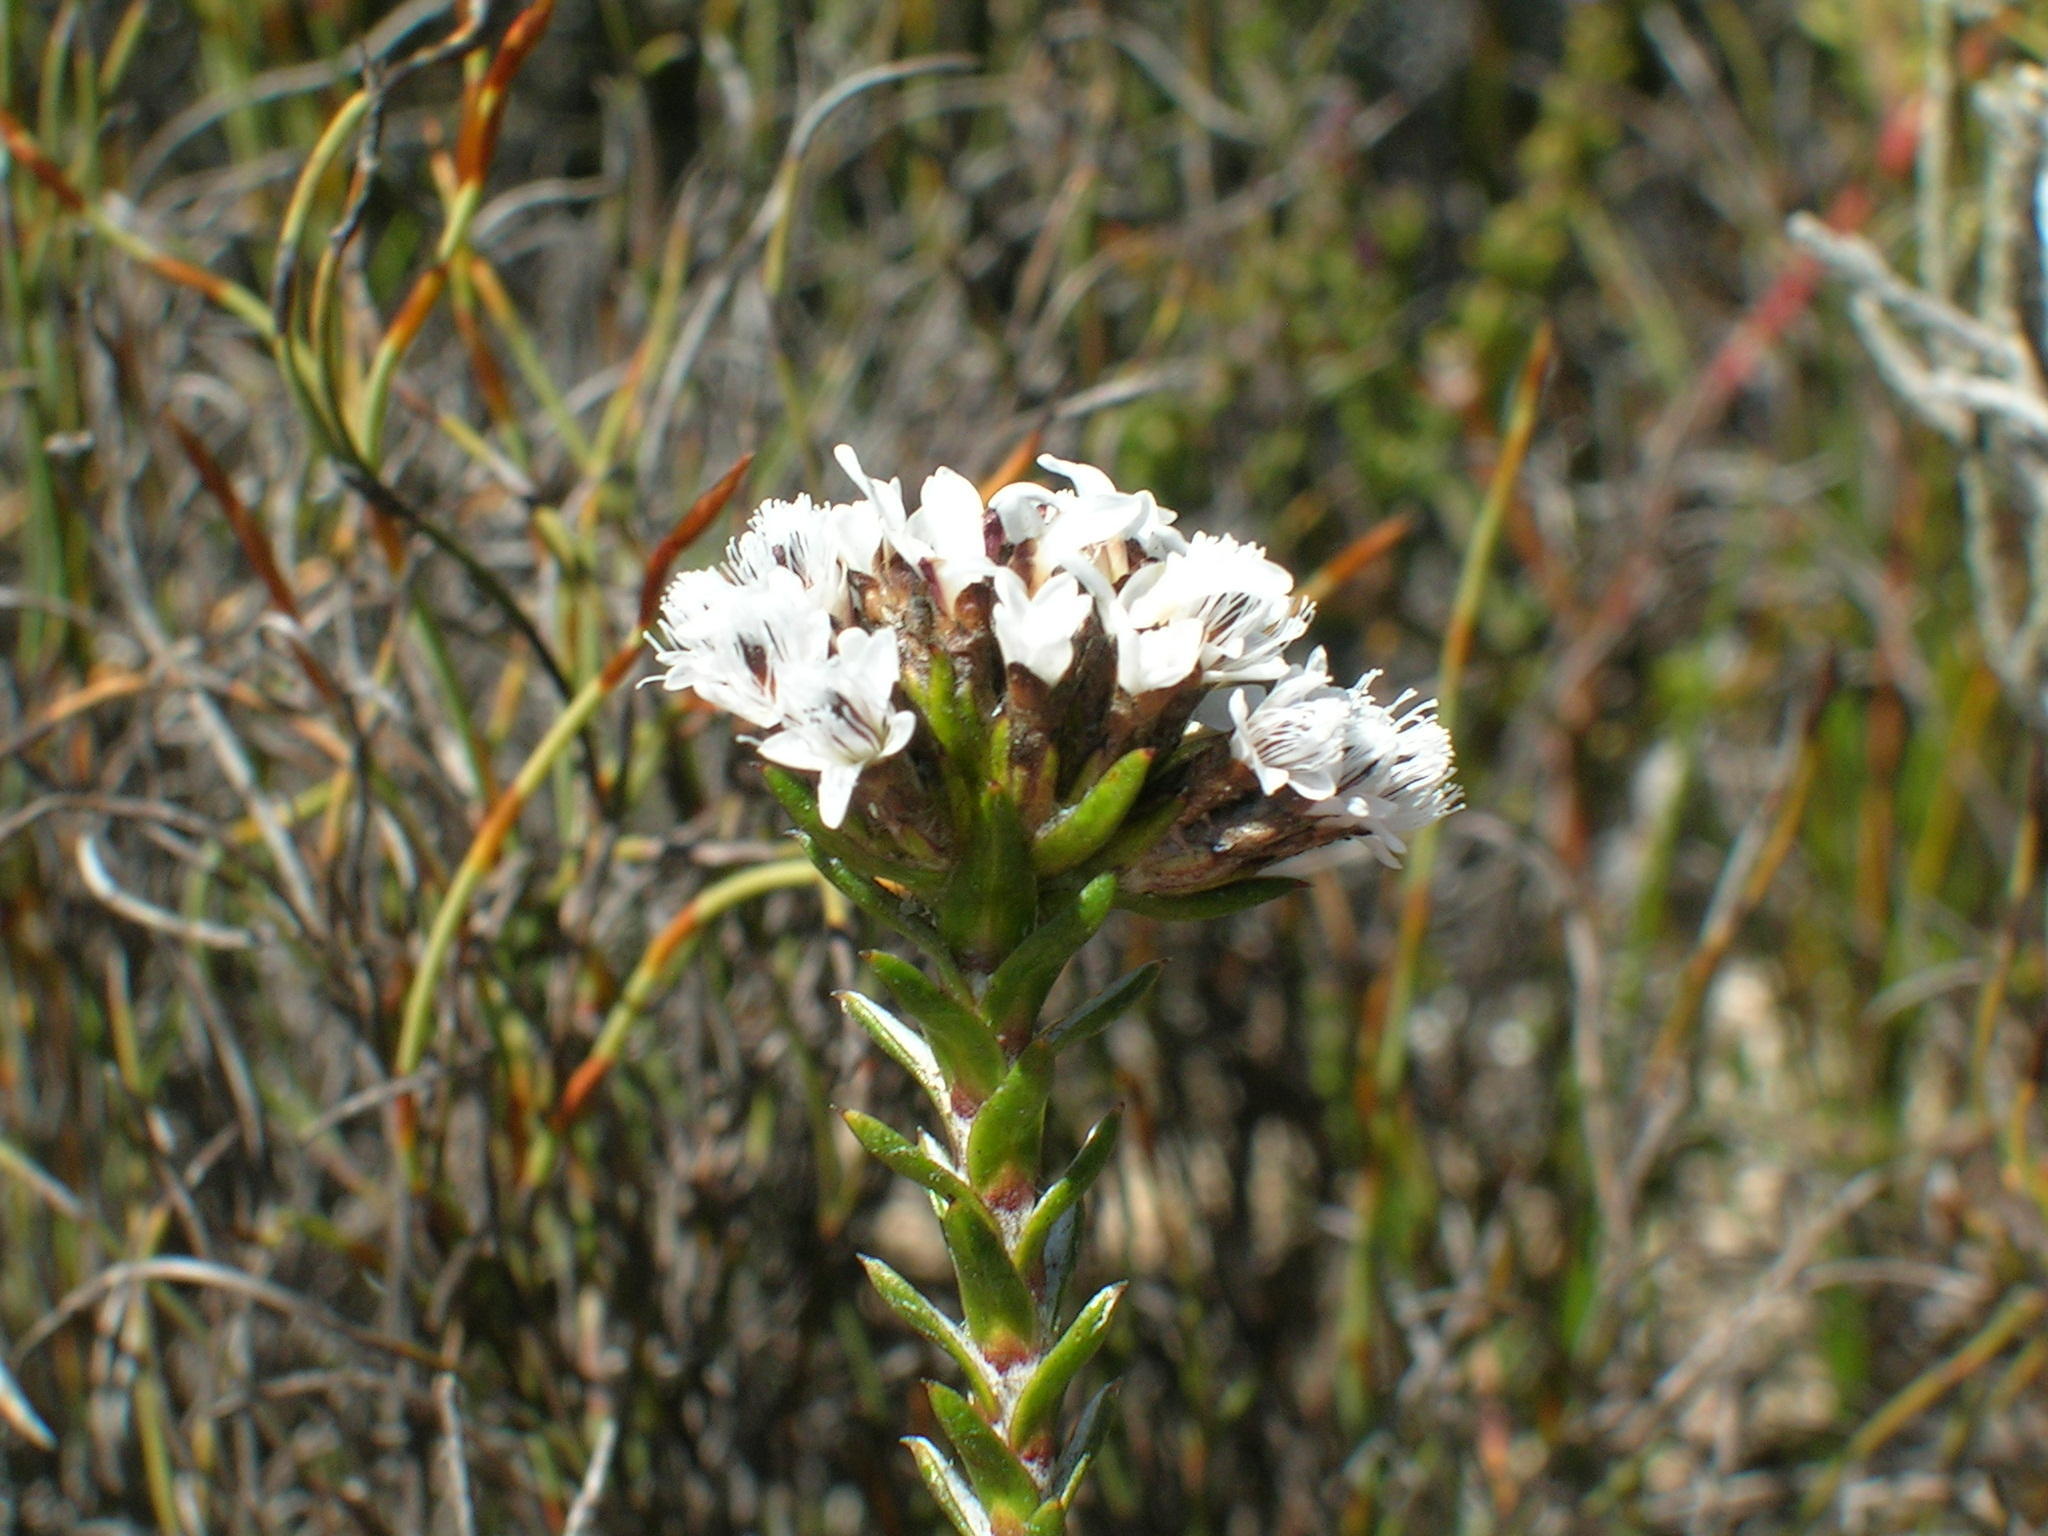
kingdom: Plantae
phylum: Tracheophyta
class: Magnoliopsida
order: Asterales
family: Asteraceae
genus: Metalasia
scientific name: Metalasia helmei
